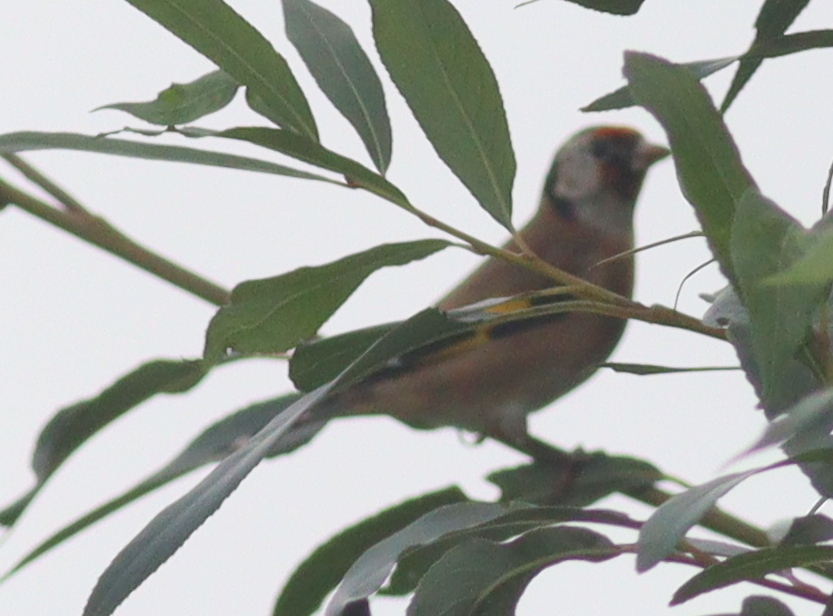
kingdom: Animalia
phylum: Chordata
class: Aves
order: Passeriformes
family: Fringillidae
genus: Carduelis
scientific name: Carduelis carduelis
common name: European goldfinch
